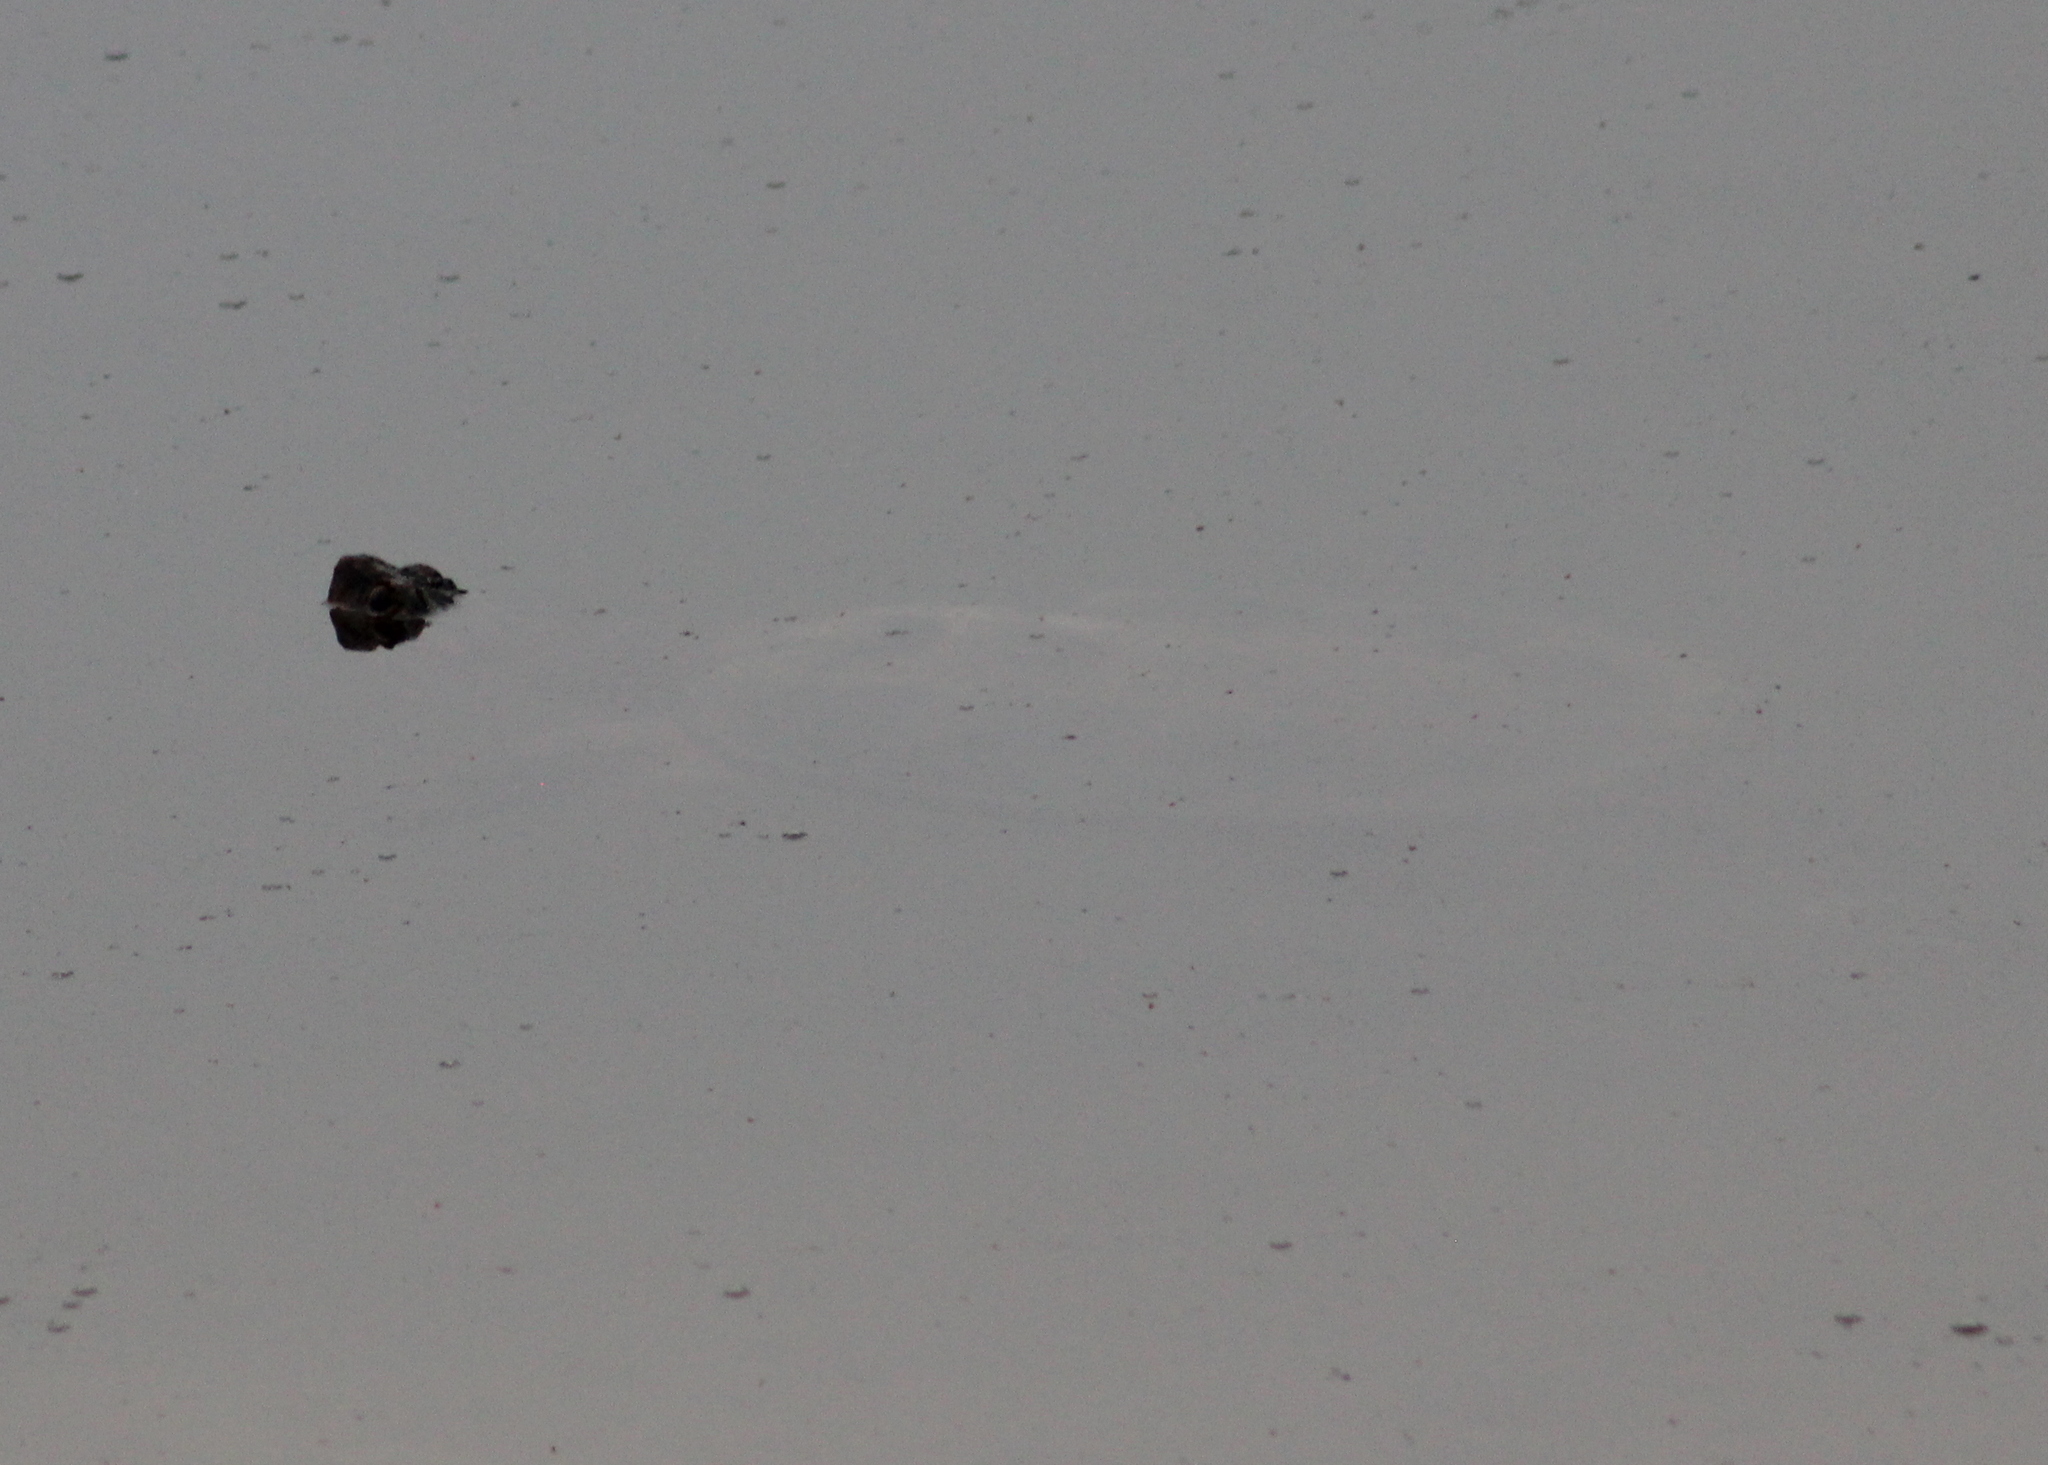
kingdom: Animalia
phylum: Chordata
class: Testudines
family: Chelydridae
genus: Chelydra
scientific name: Chelydra serpentina
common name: Common snapping turtle
